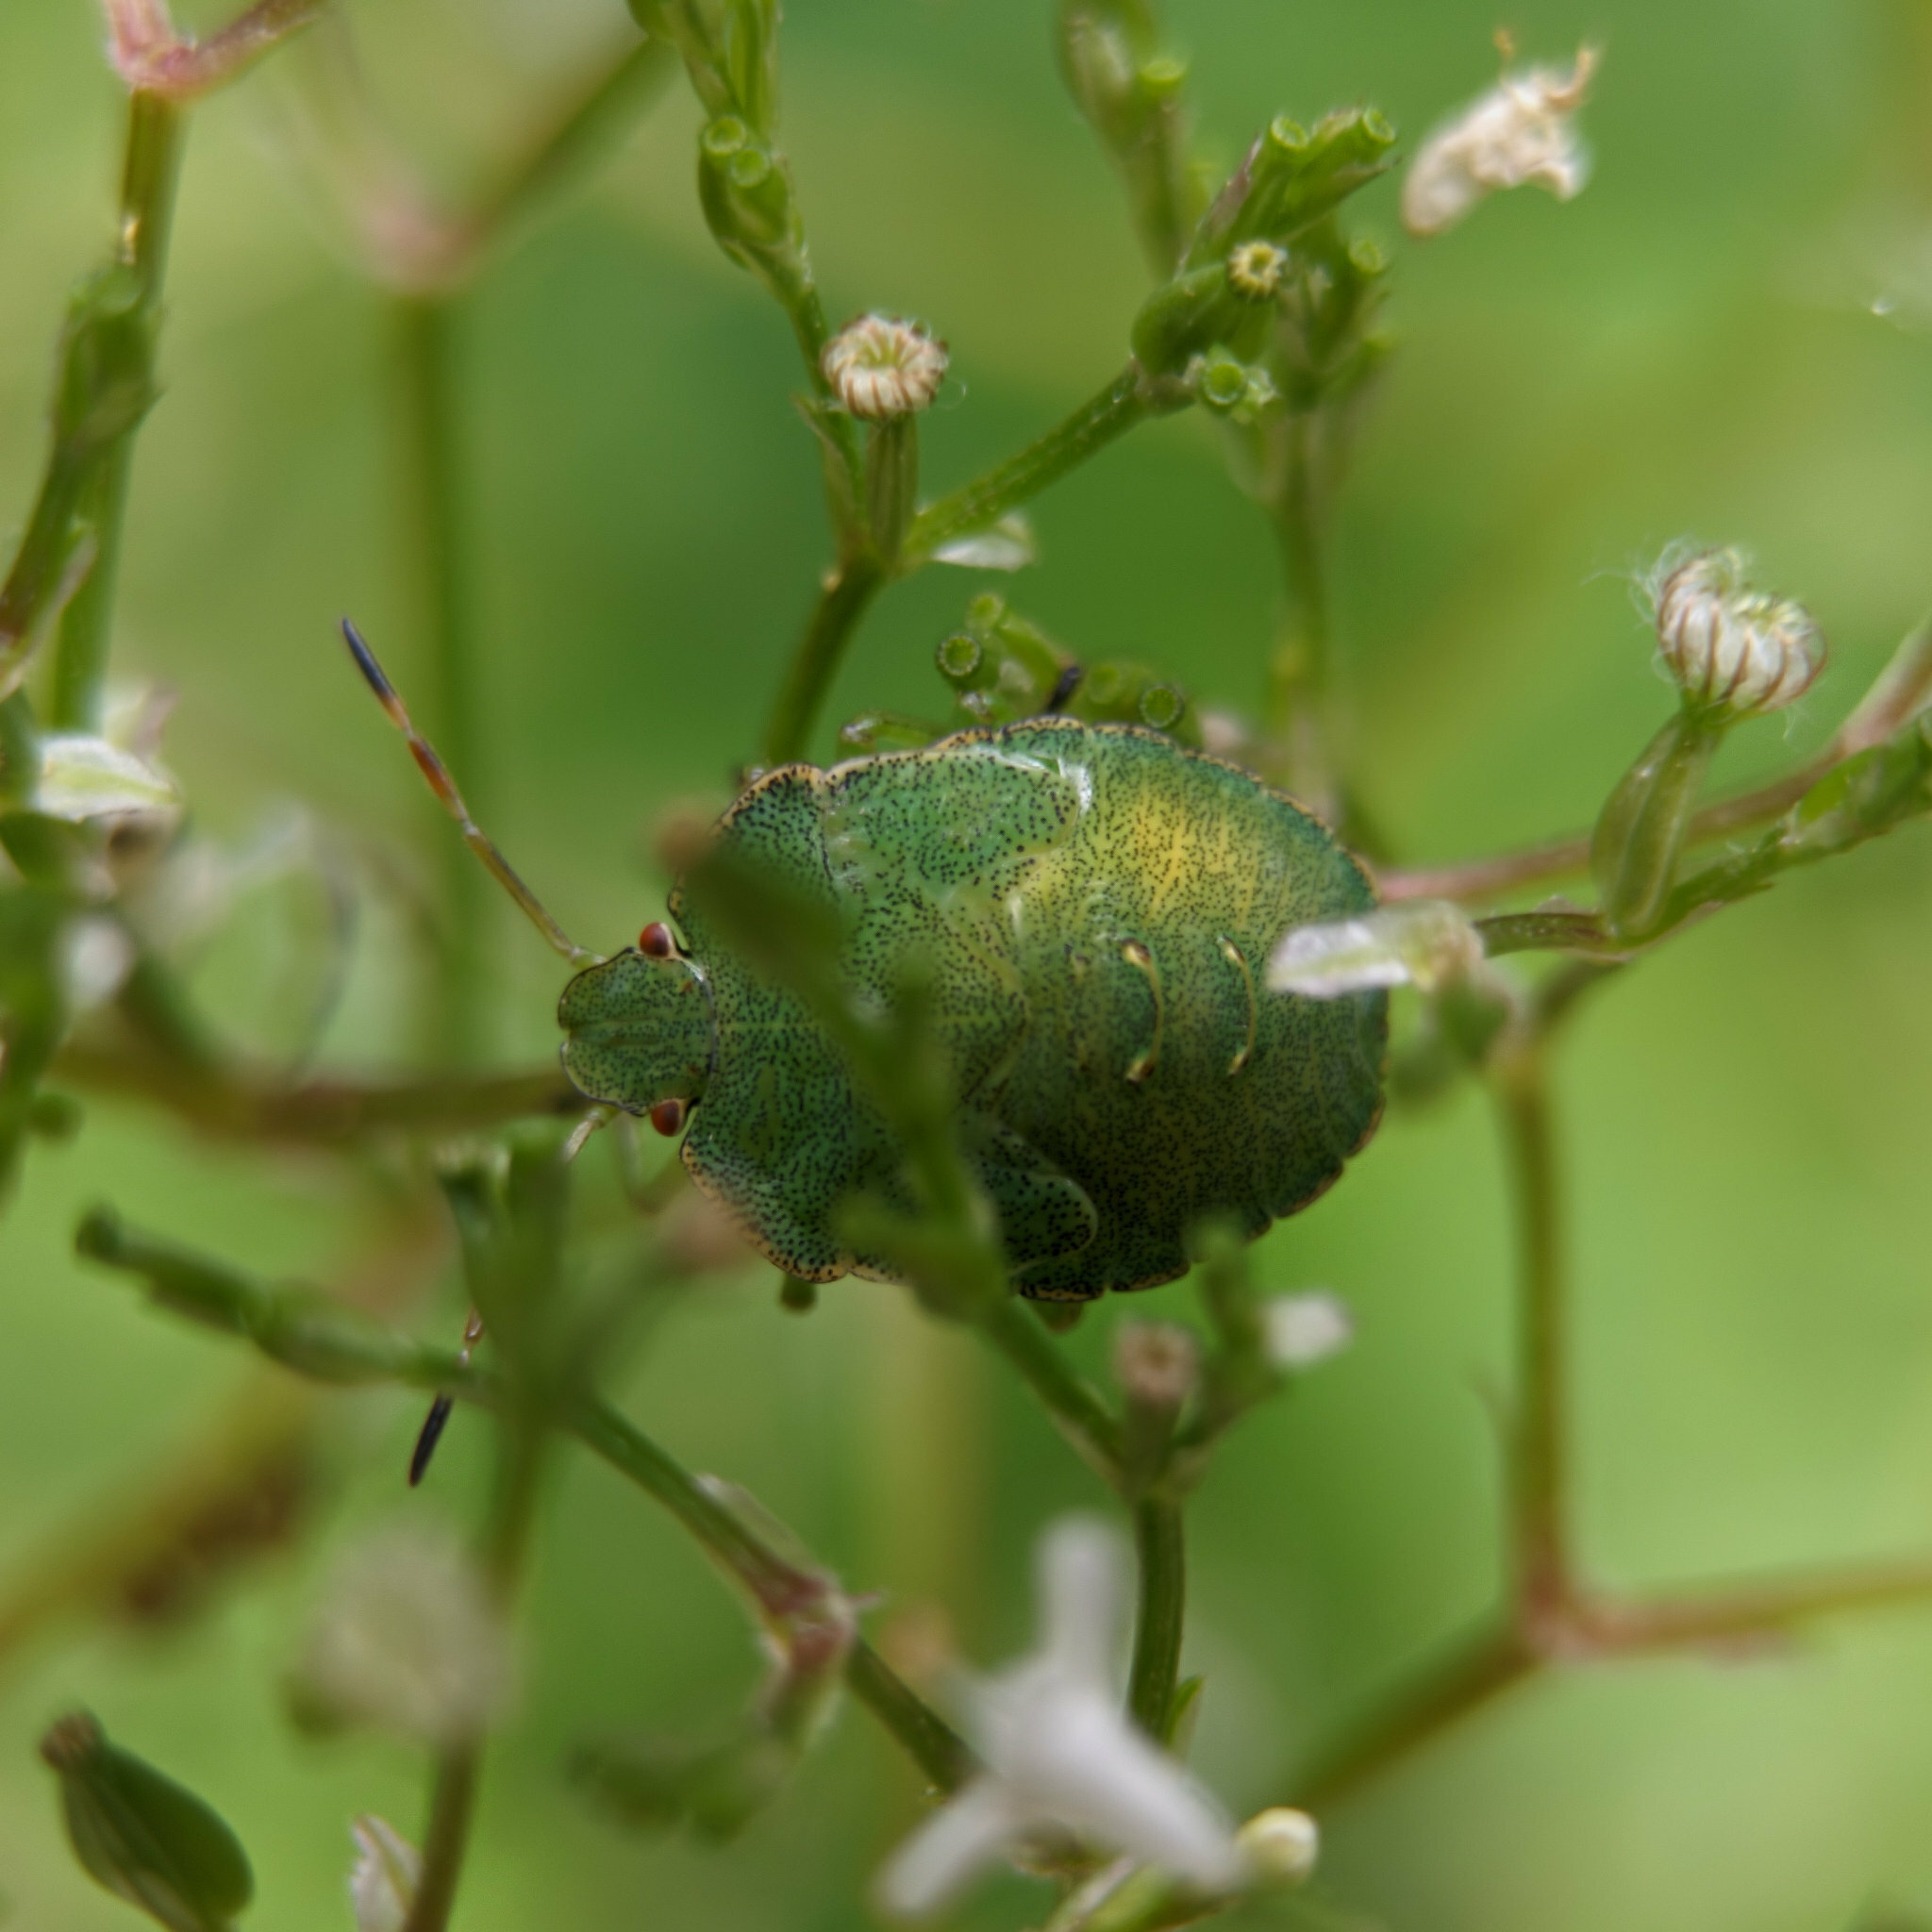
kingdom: Animalia
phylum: Arthropoda
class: Insecta
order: Hemiptera
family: Pentatomidae
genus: Palomena
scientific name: Palomena prasina
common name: Green shieldbug
